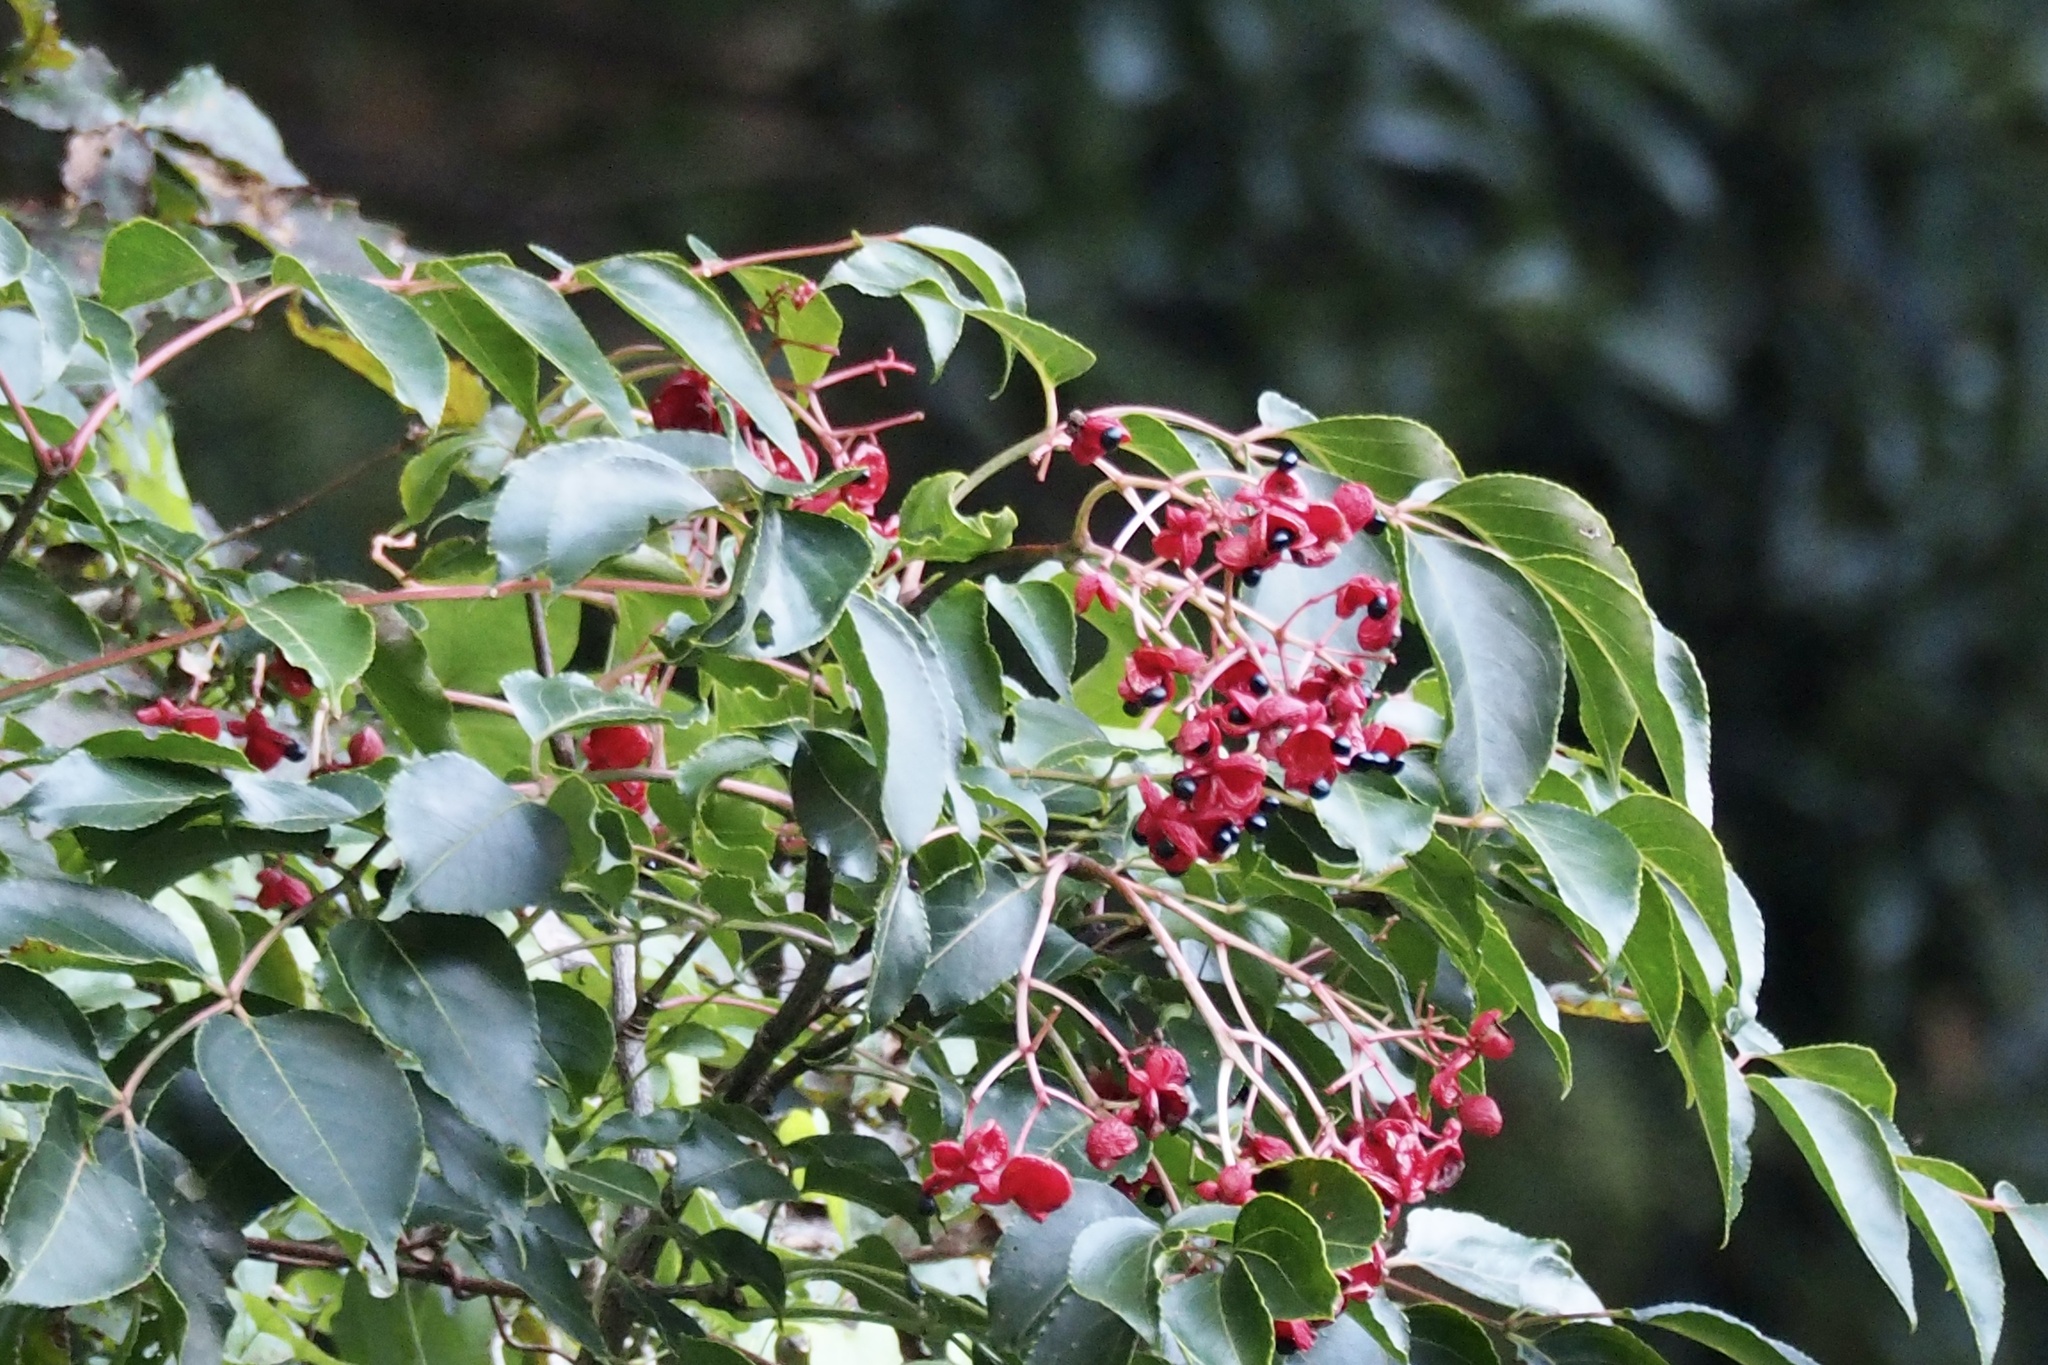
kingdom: Plantae
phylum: Tracheophyta
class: Magnoliopsida
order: Crossosomatales
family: Staphyleaceae
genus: Staphylea
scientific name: Staphylea japonica
